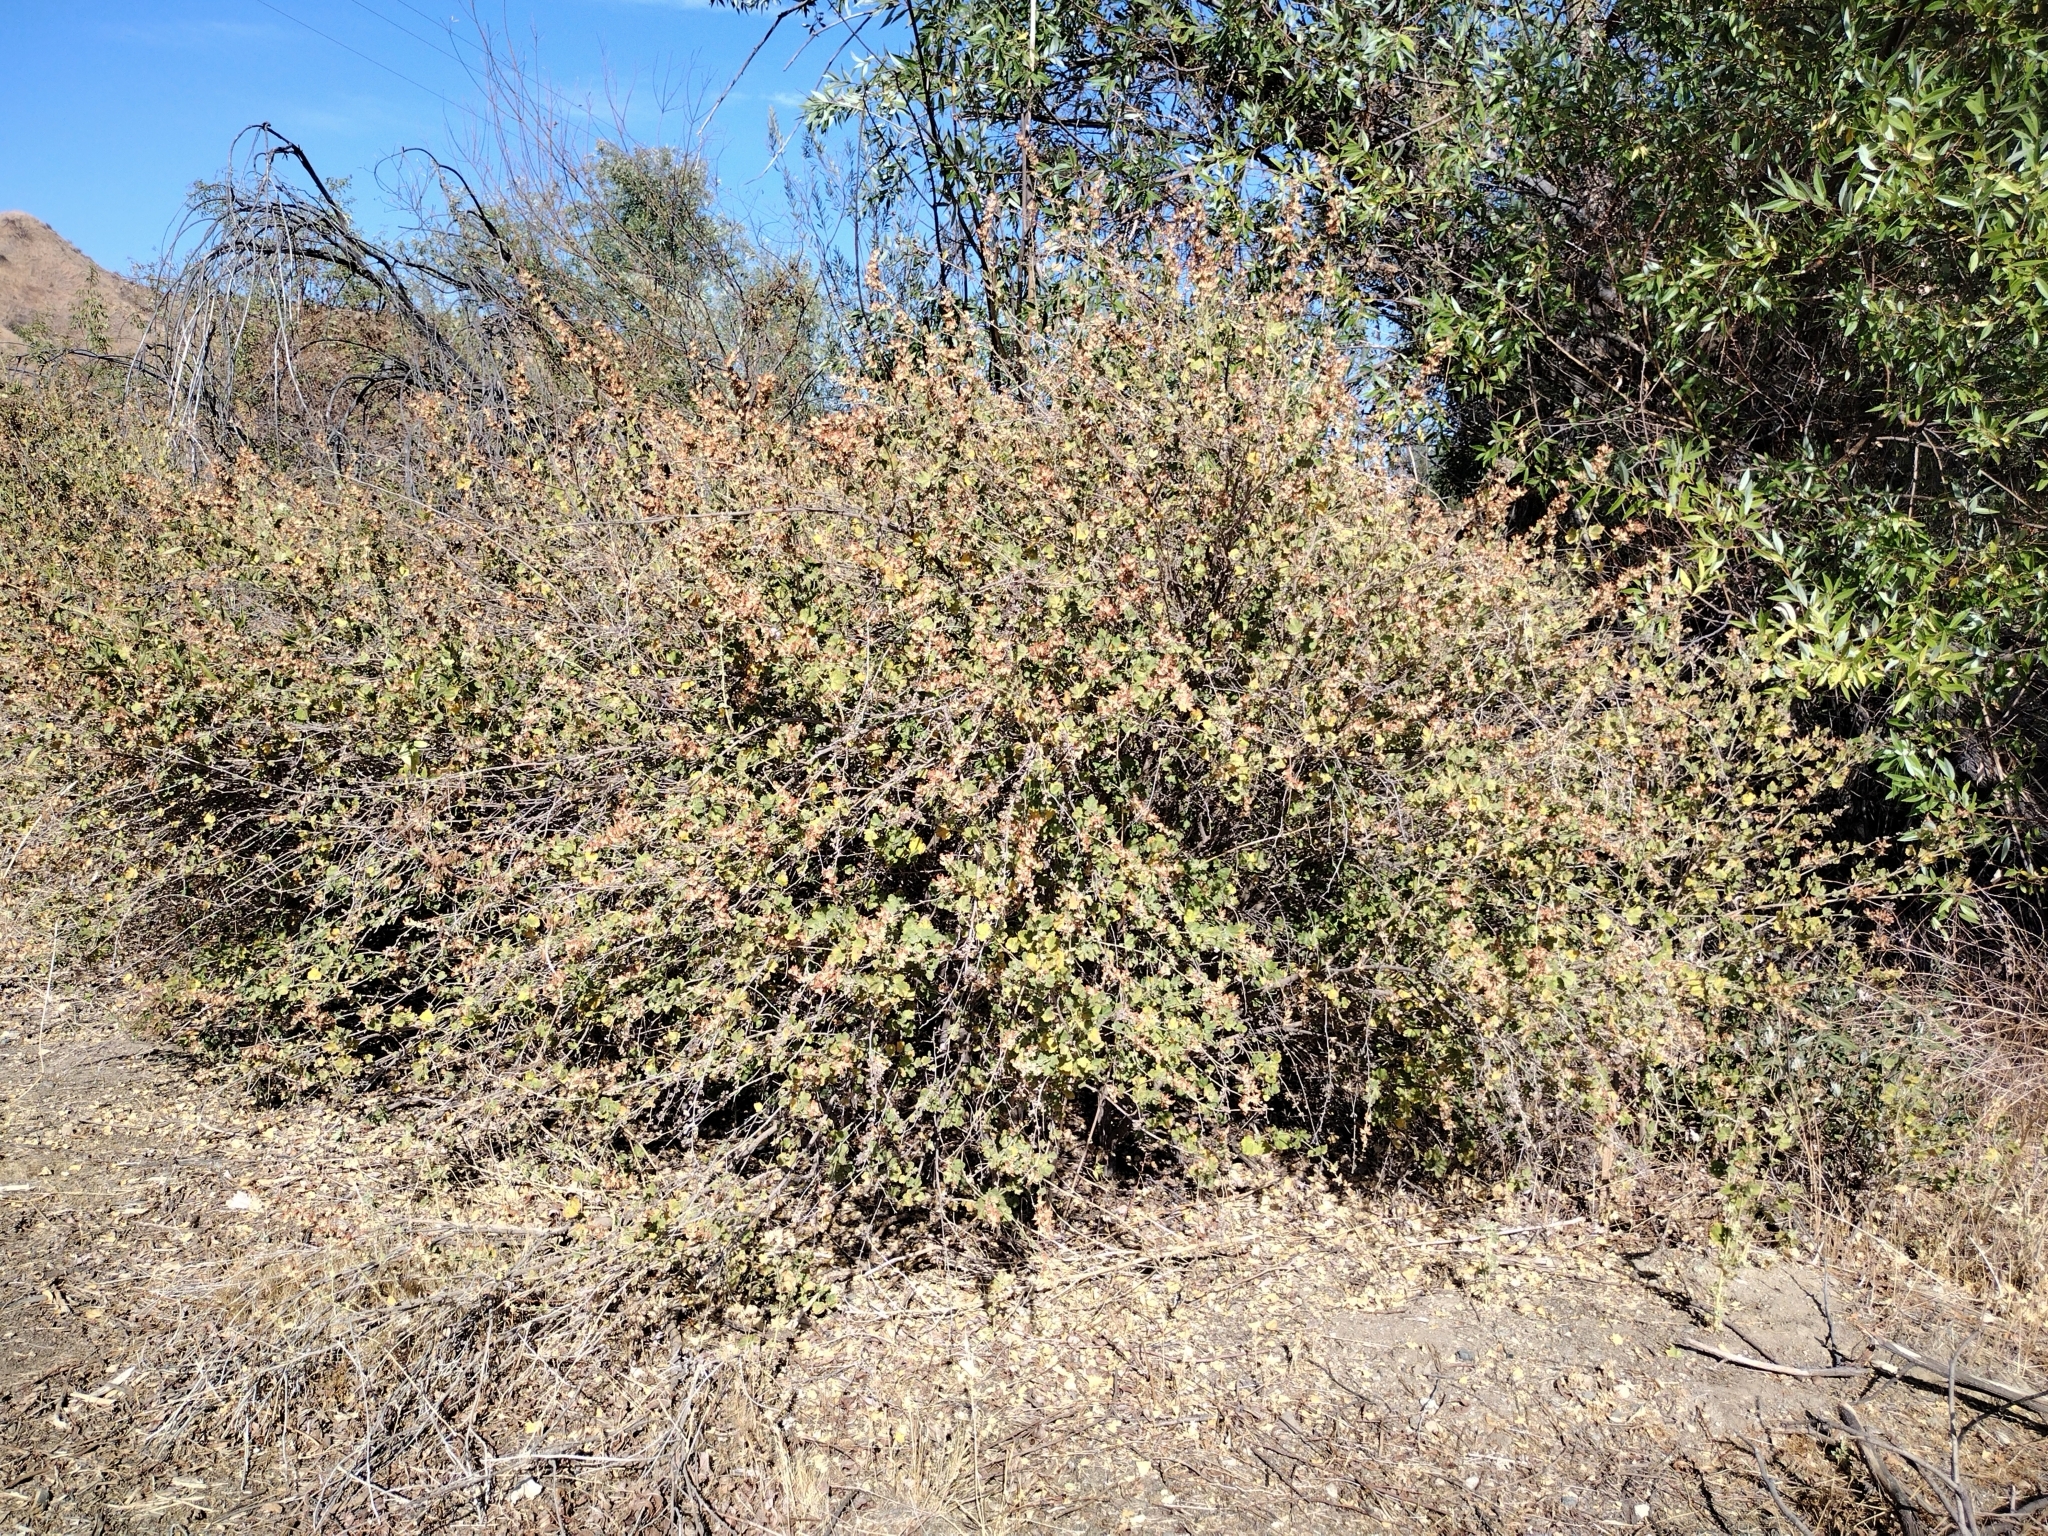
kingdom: Plantae
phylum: Tracheophyta
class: Magnoliopsida
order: Malvales
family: Malvaceae
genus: Malacothamnus
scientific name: Malacothamnus fasciculatus
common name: Sant cruz island bush-mallow
